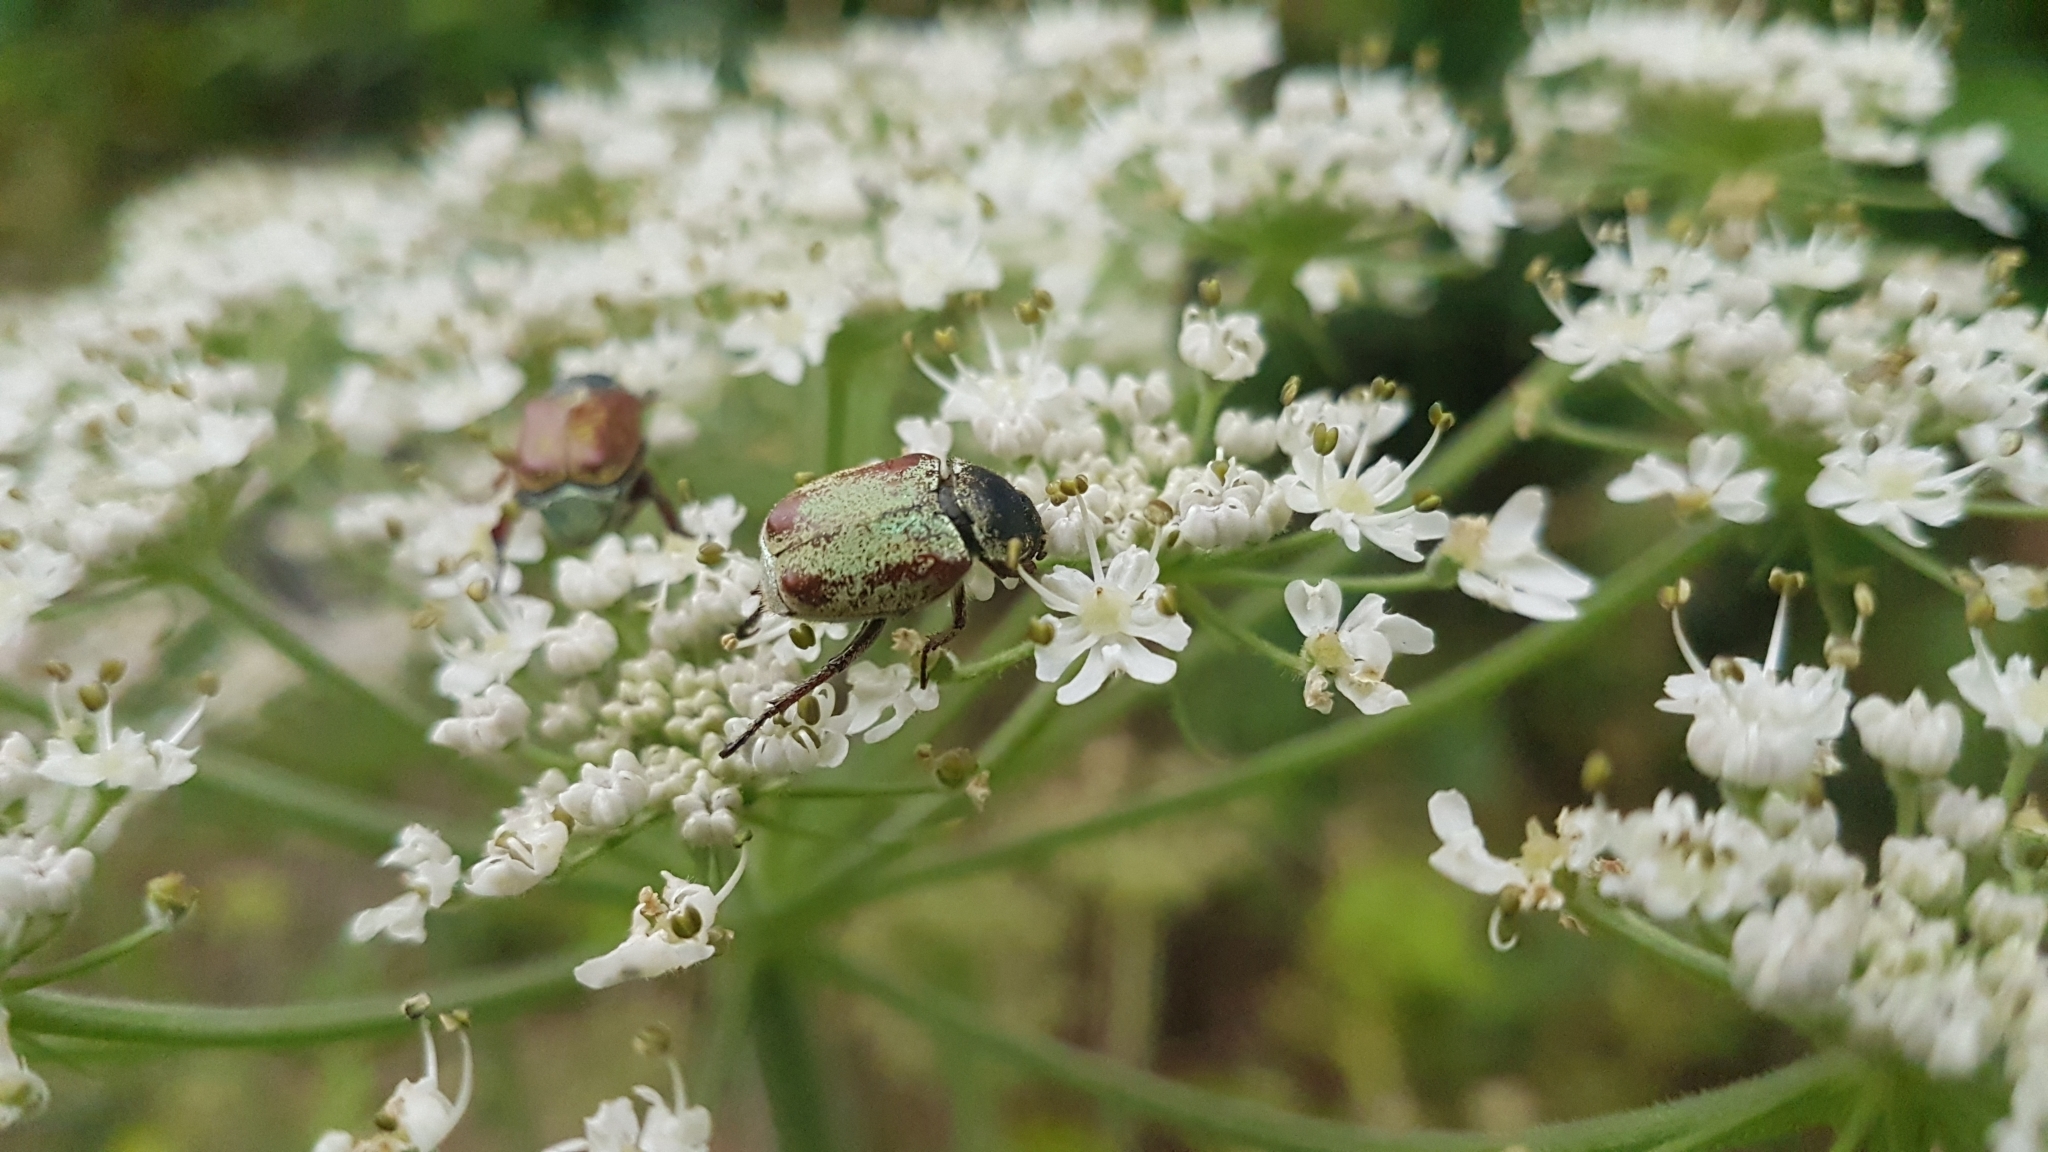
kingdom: Animalia
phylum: Arthropoda
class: Insecta
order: Coleoptera
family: Scarabaeidae
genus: Hoplia
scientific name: Hoplia argentea
